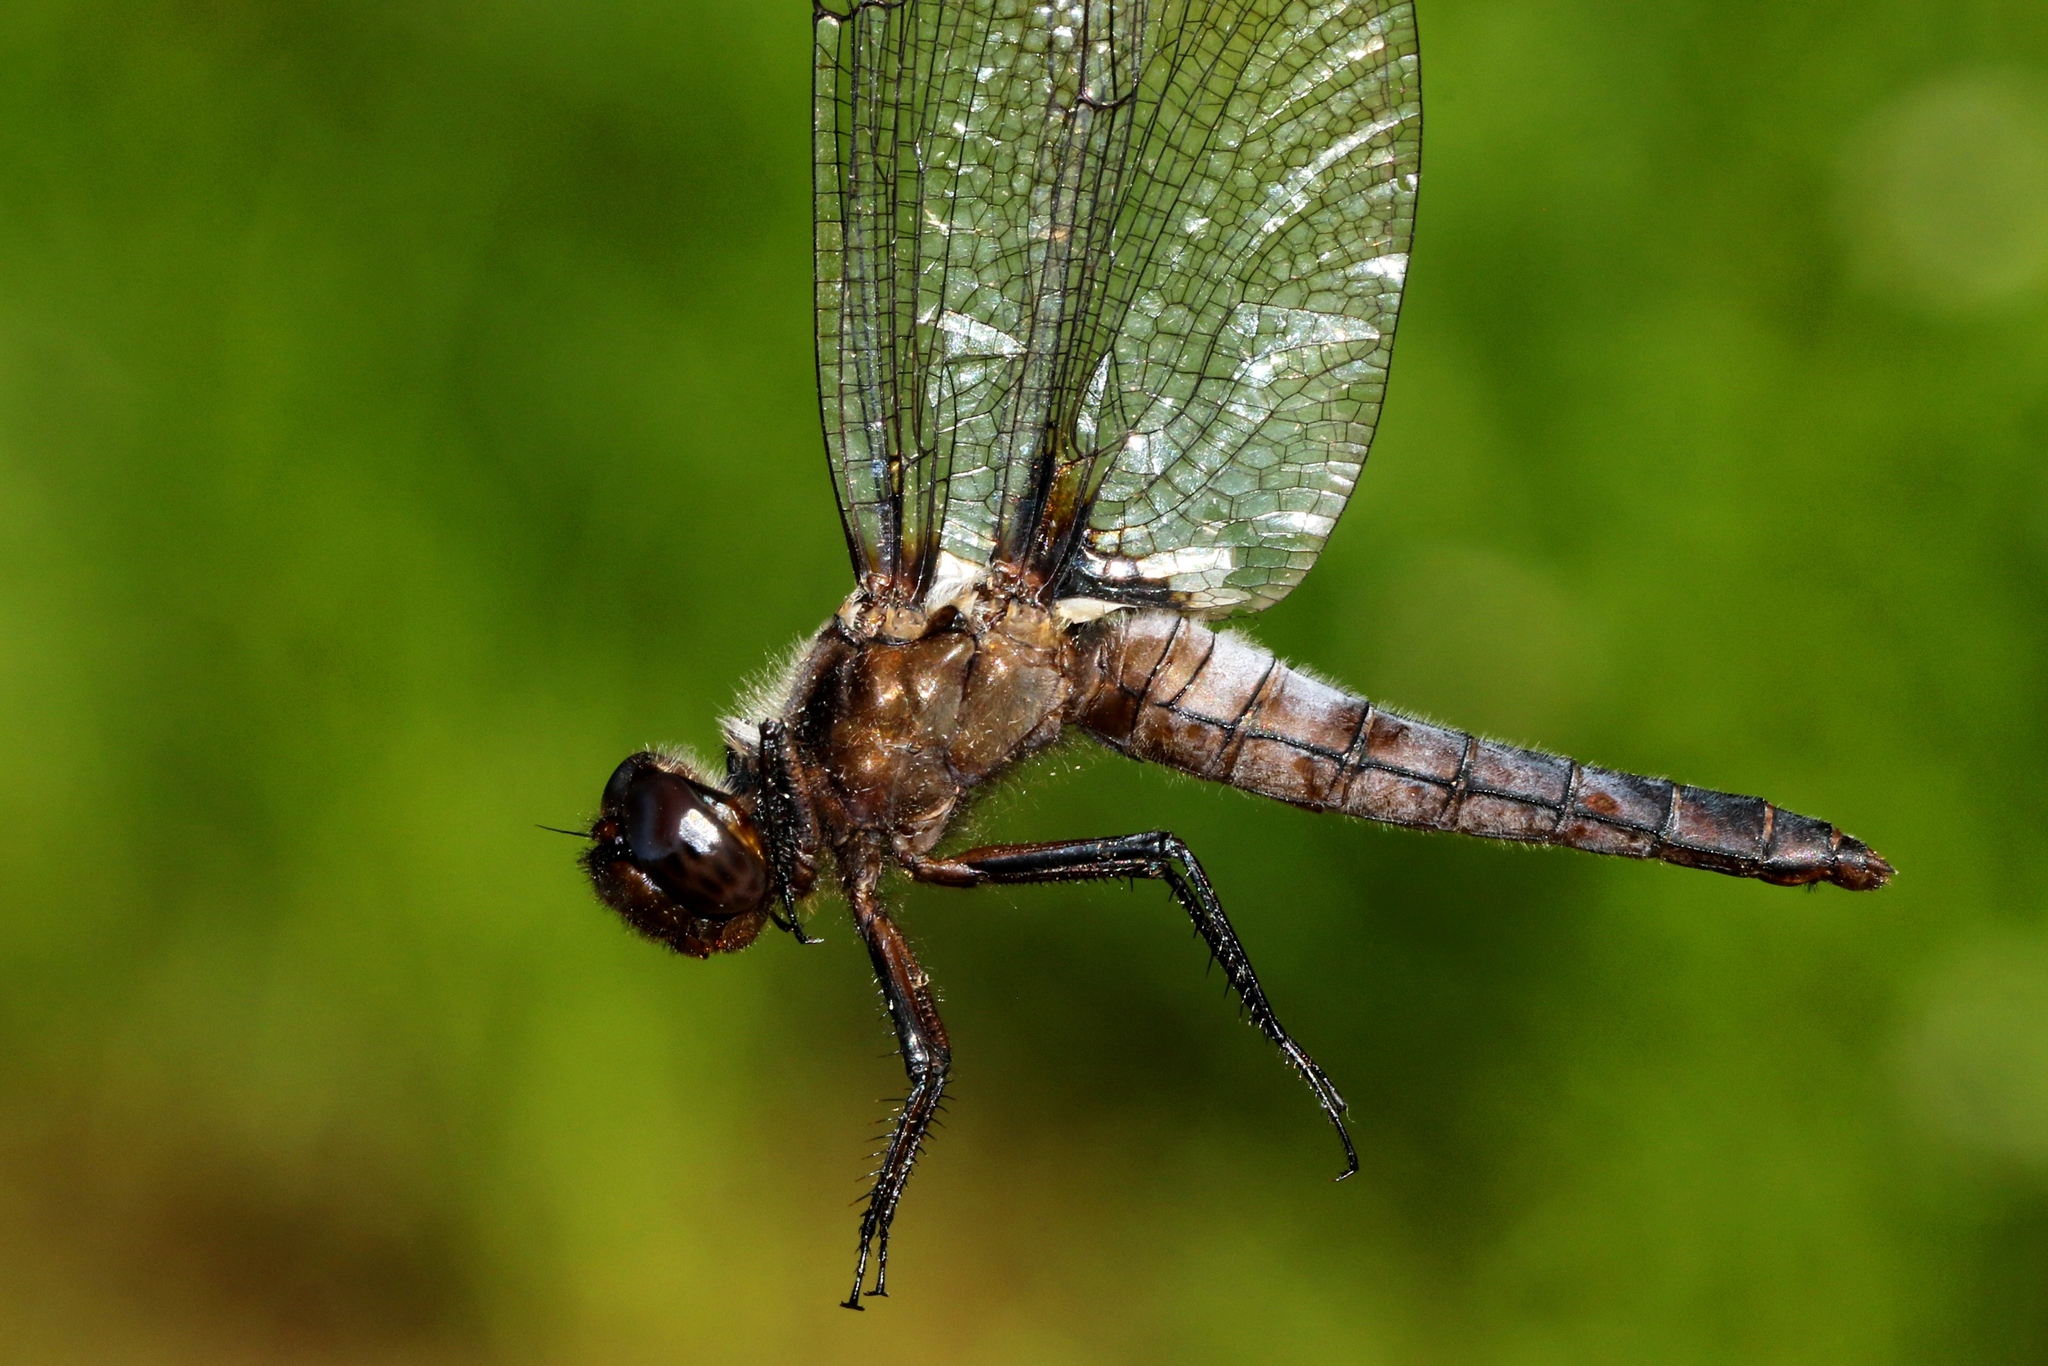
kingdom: Animalia
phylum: Arthropoda
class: Insecta
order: Odonata
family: Libellulidae
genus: Ladona
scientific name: Ladona julia
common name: Chalk-fronted corporal
